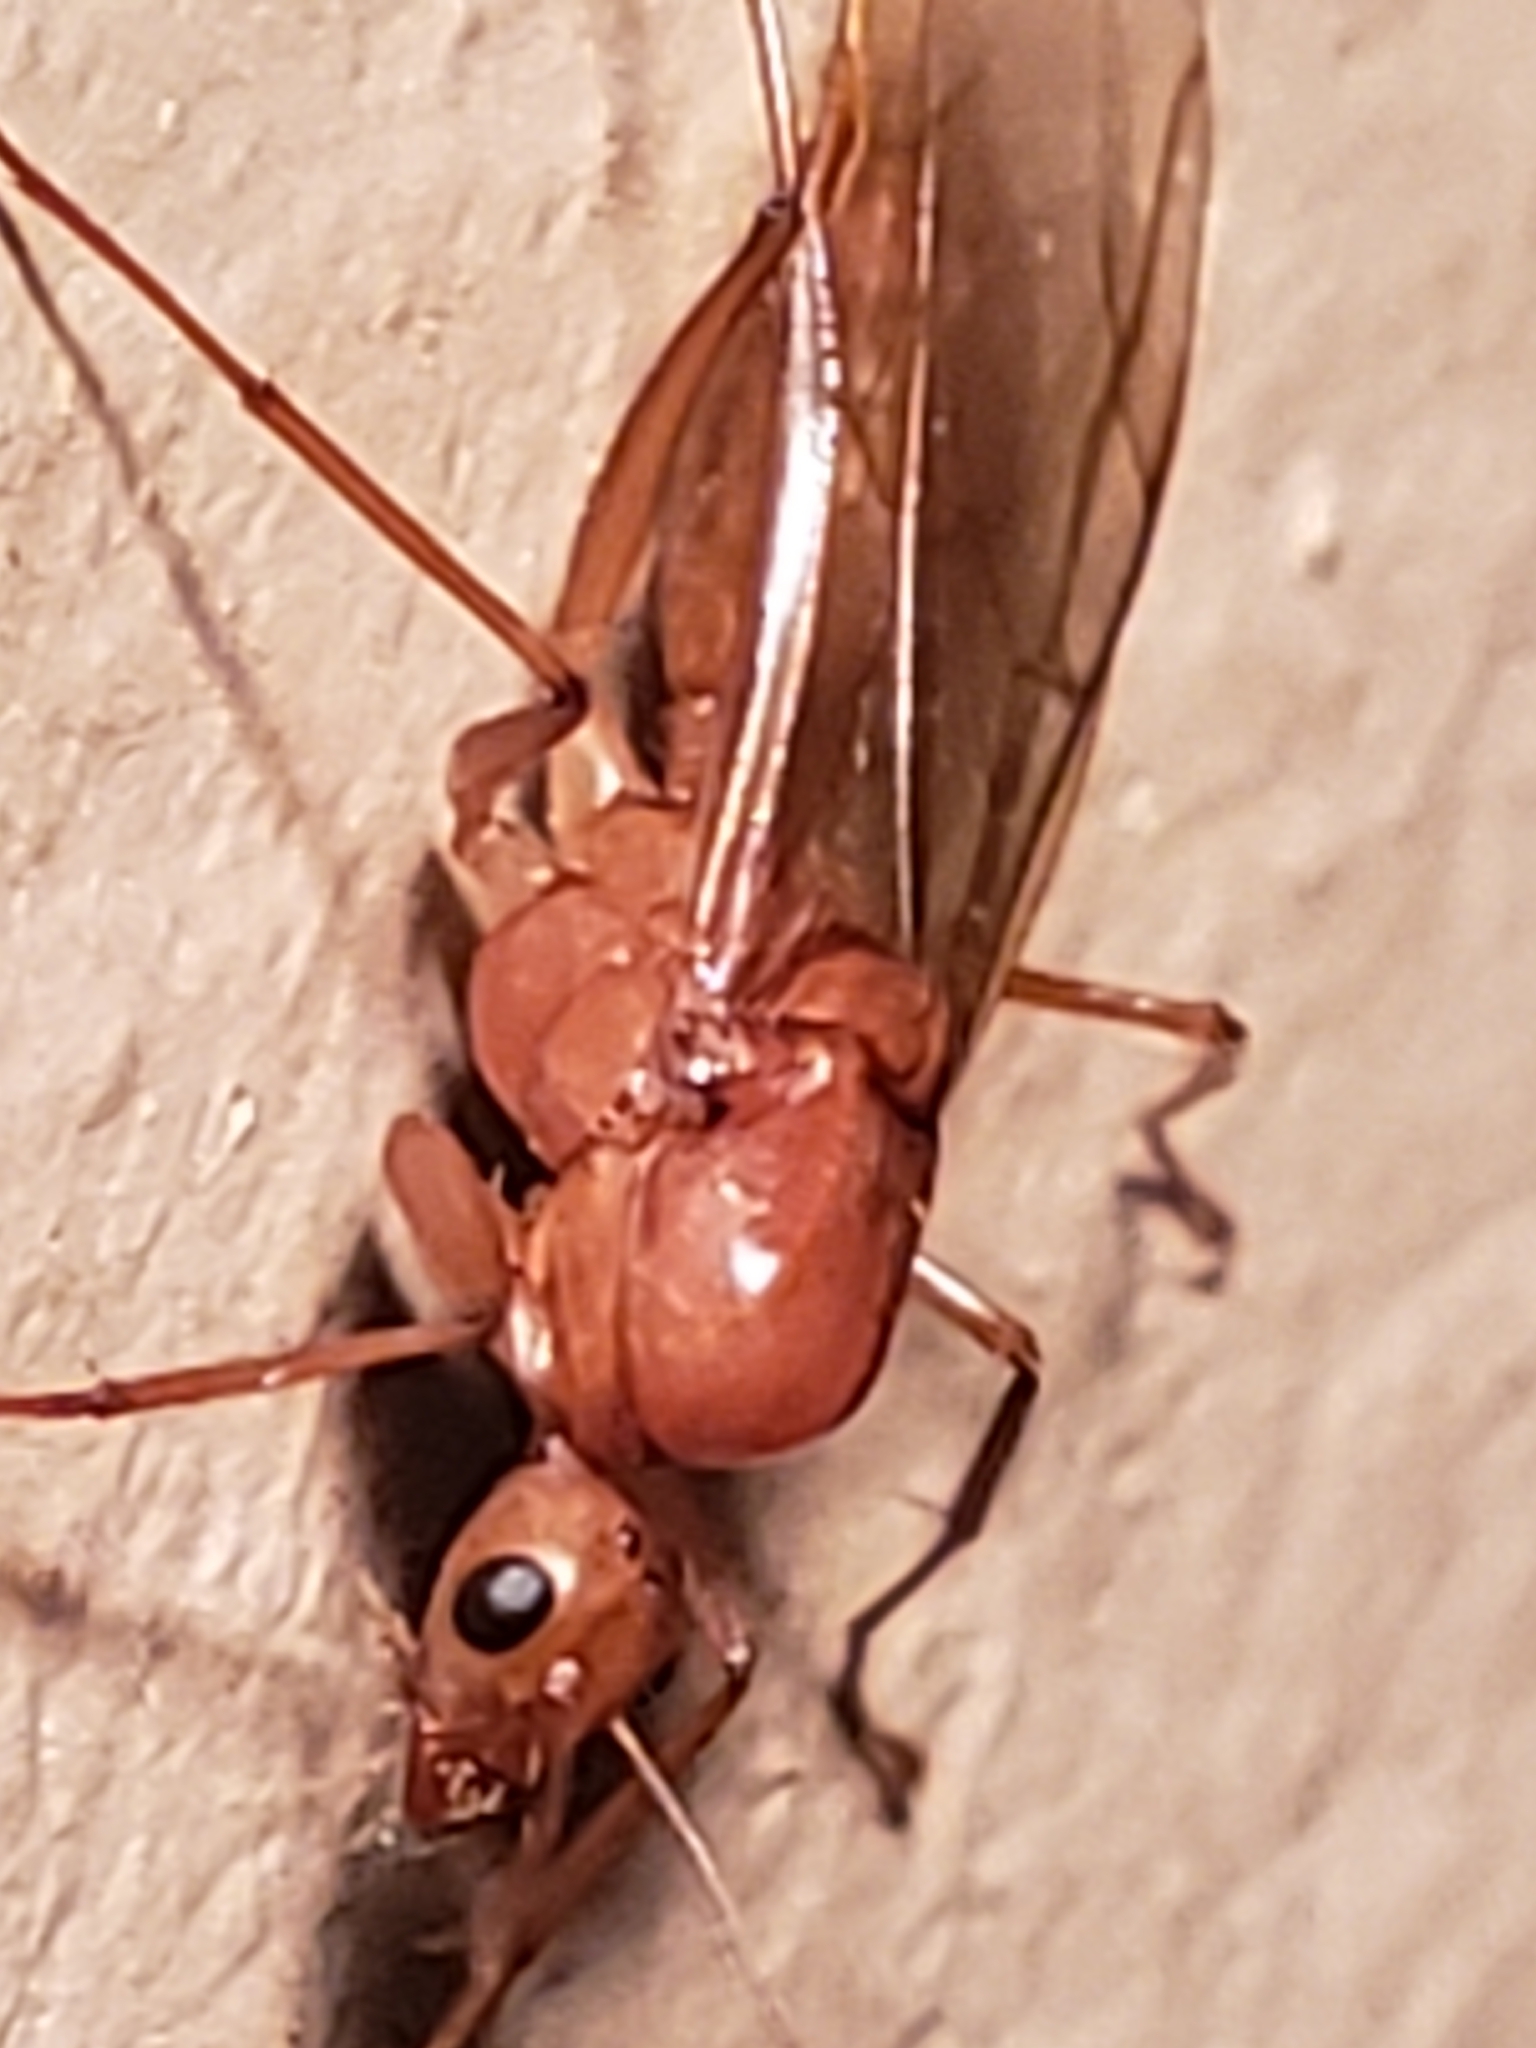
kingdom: Animalia
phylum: Arthropoda
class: Insecta
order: Hymenoptera
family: Formicidae
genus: Camponotus
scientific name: Camponotus castaneus
